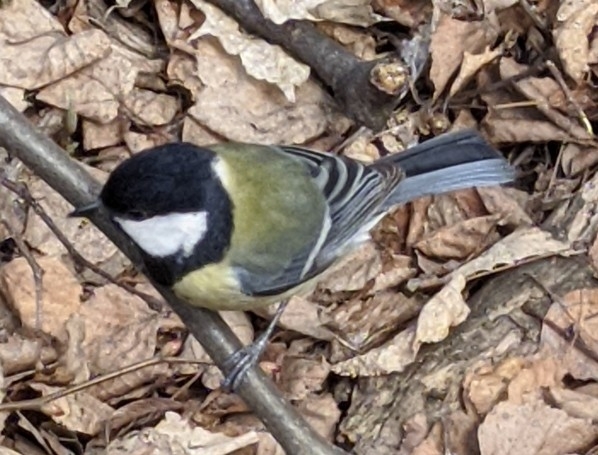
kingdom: Animalia
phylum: Chordata
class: Aves
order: Passeriformes
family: Paridae
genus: Parus
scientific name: Parus major
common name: Great tit
